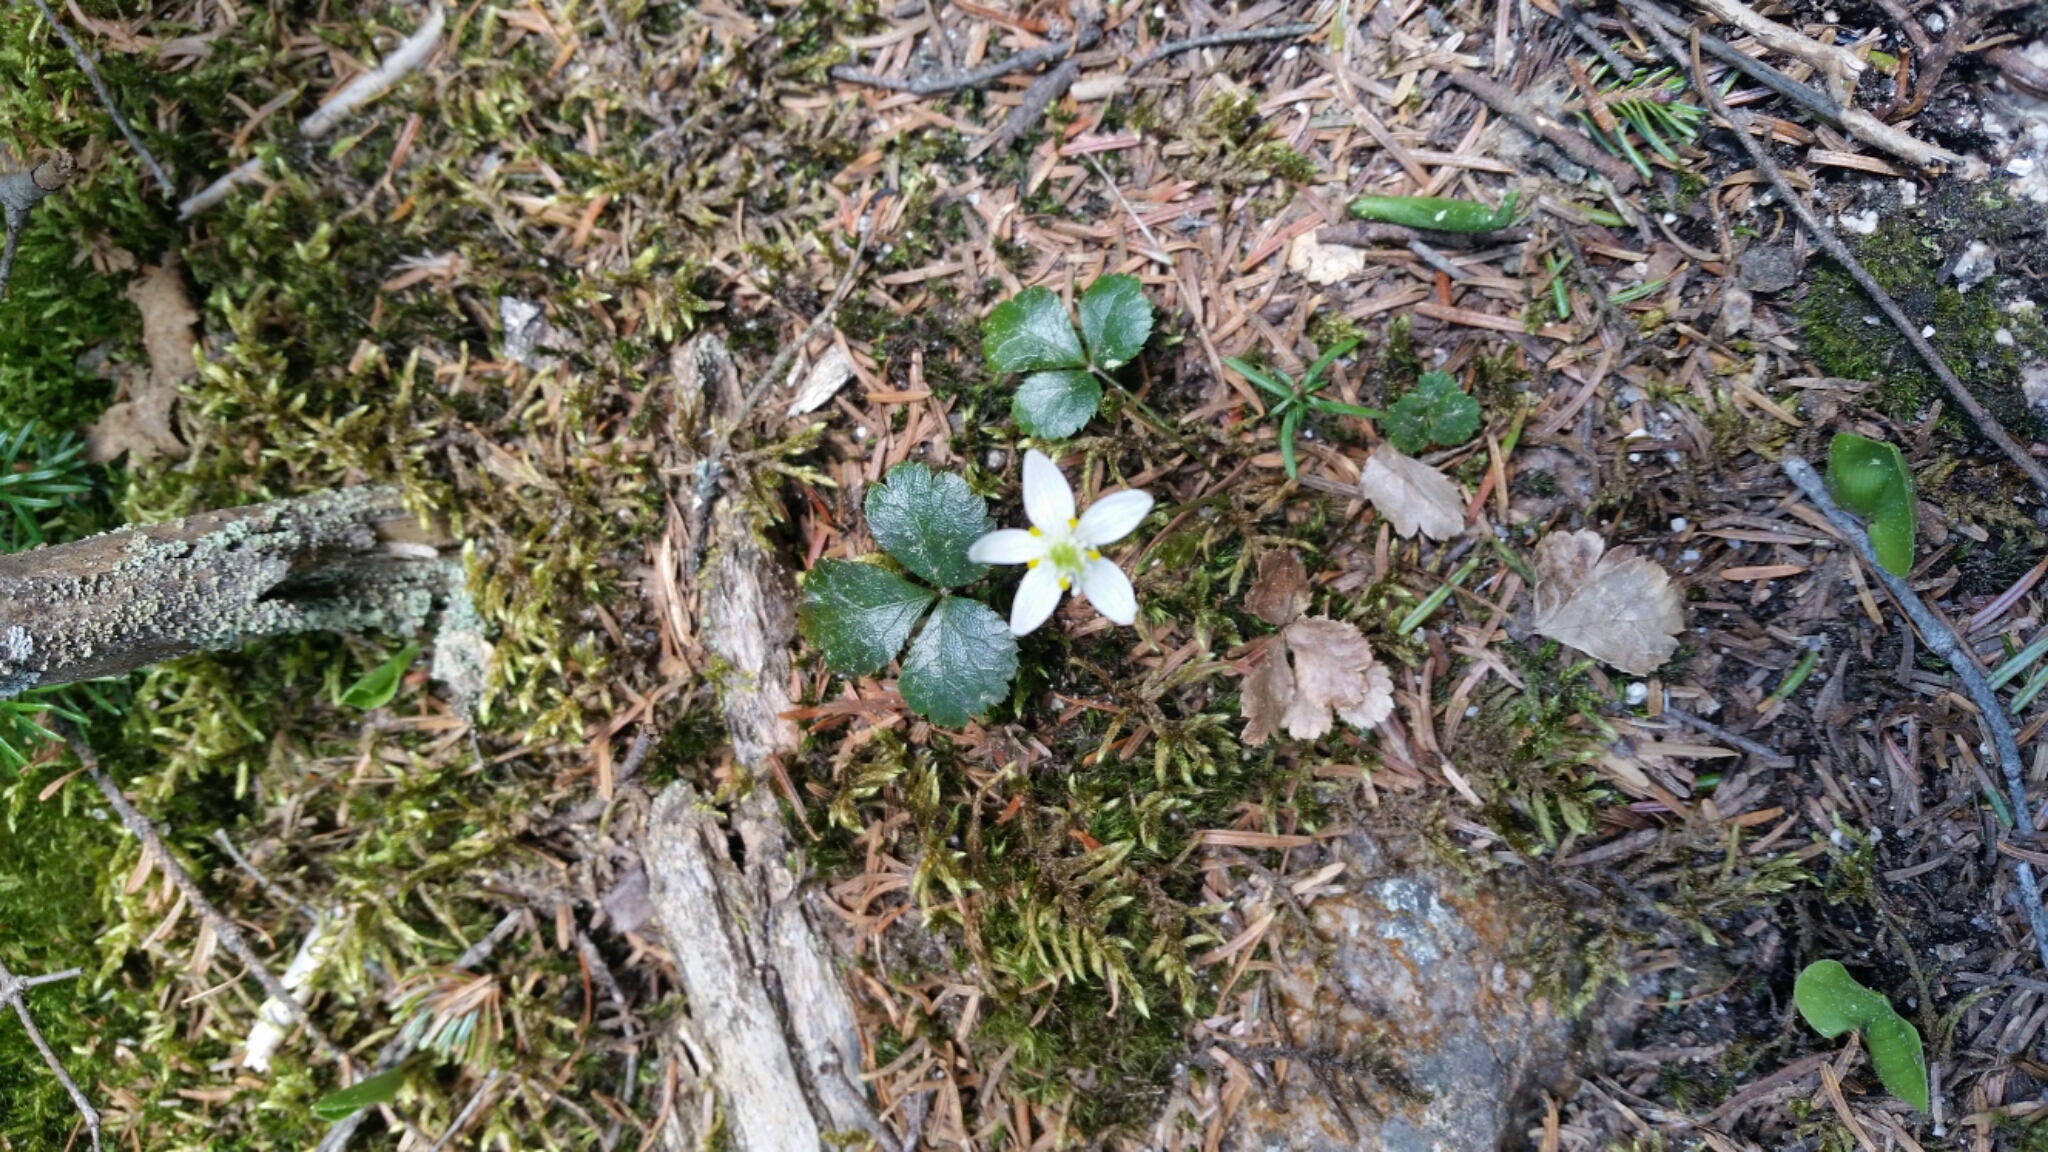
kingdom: Plantae
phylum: Tracheophyta
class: Magnoliopsida
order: Ranunculales
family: Ranunculaceae
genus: Coptis
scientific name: Coptis trifolia
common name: Canker-root
